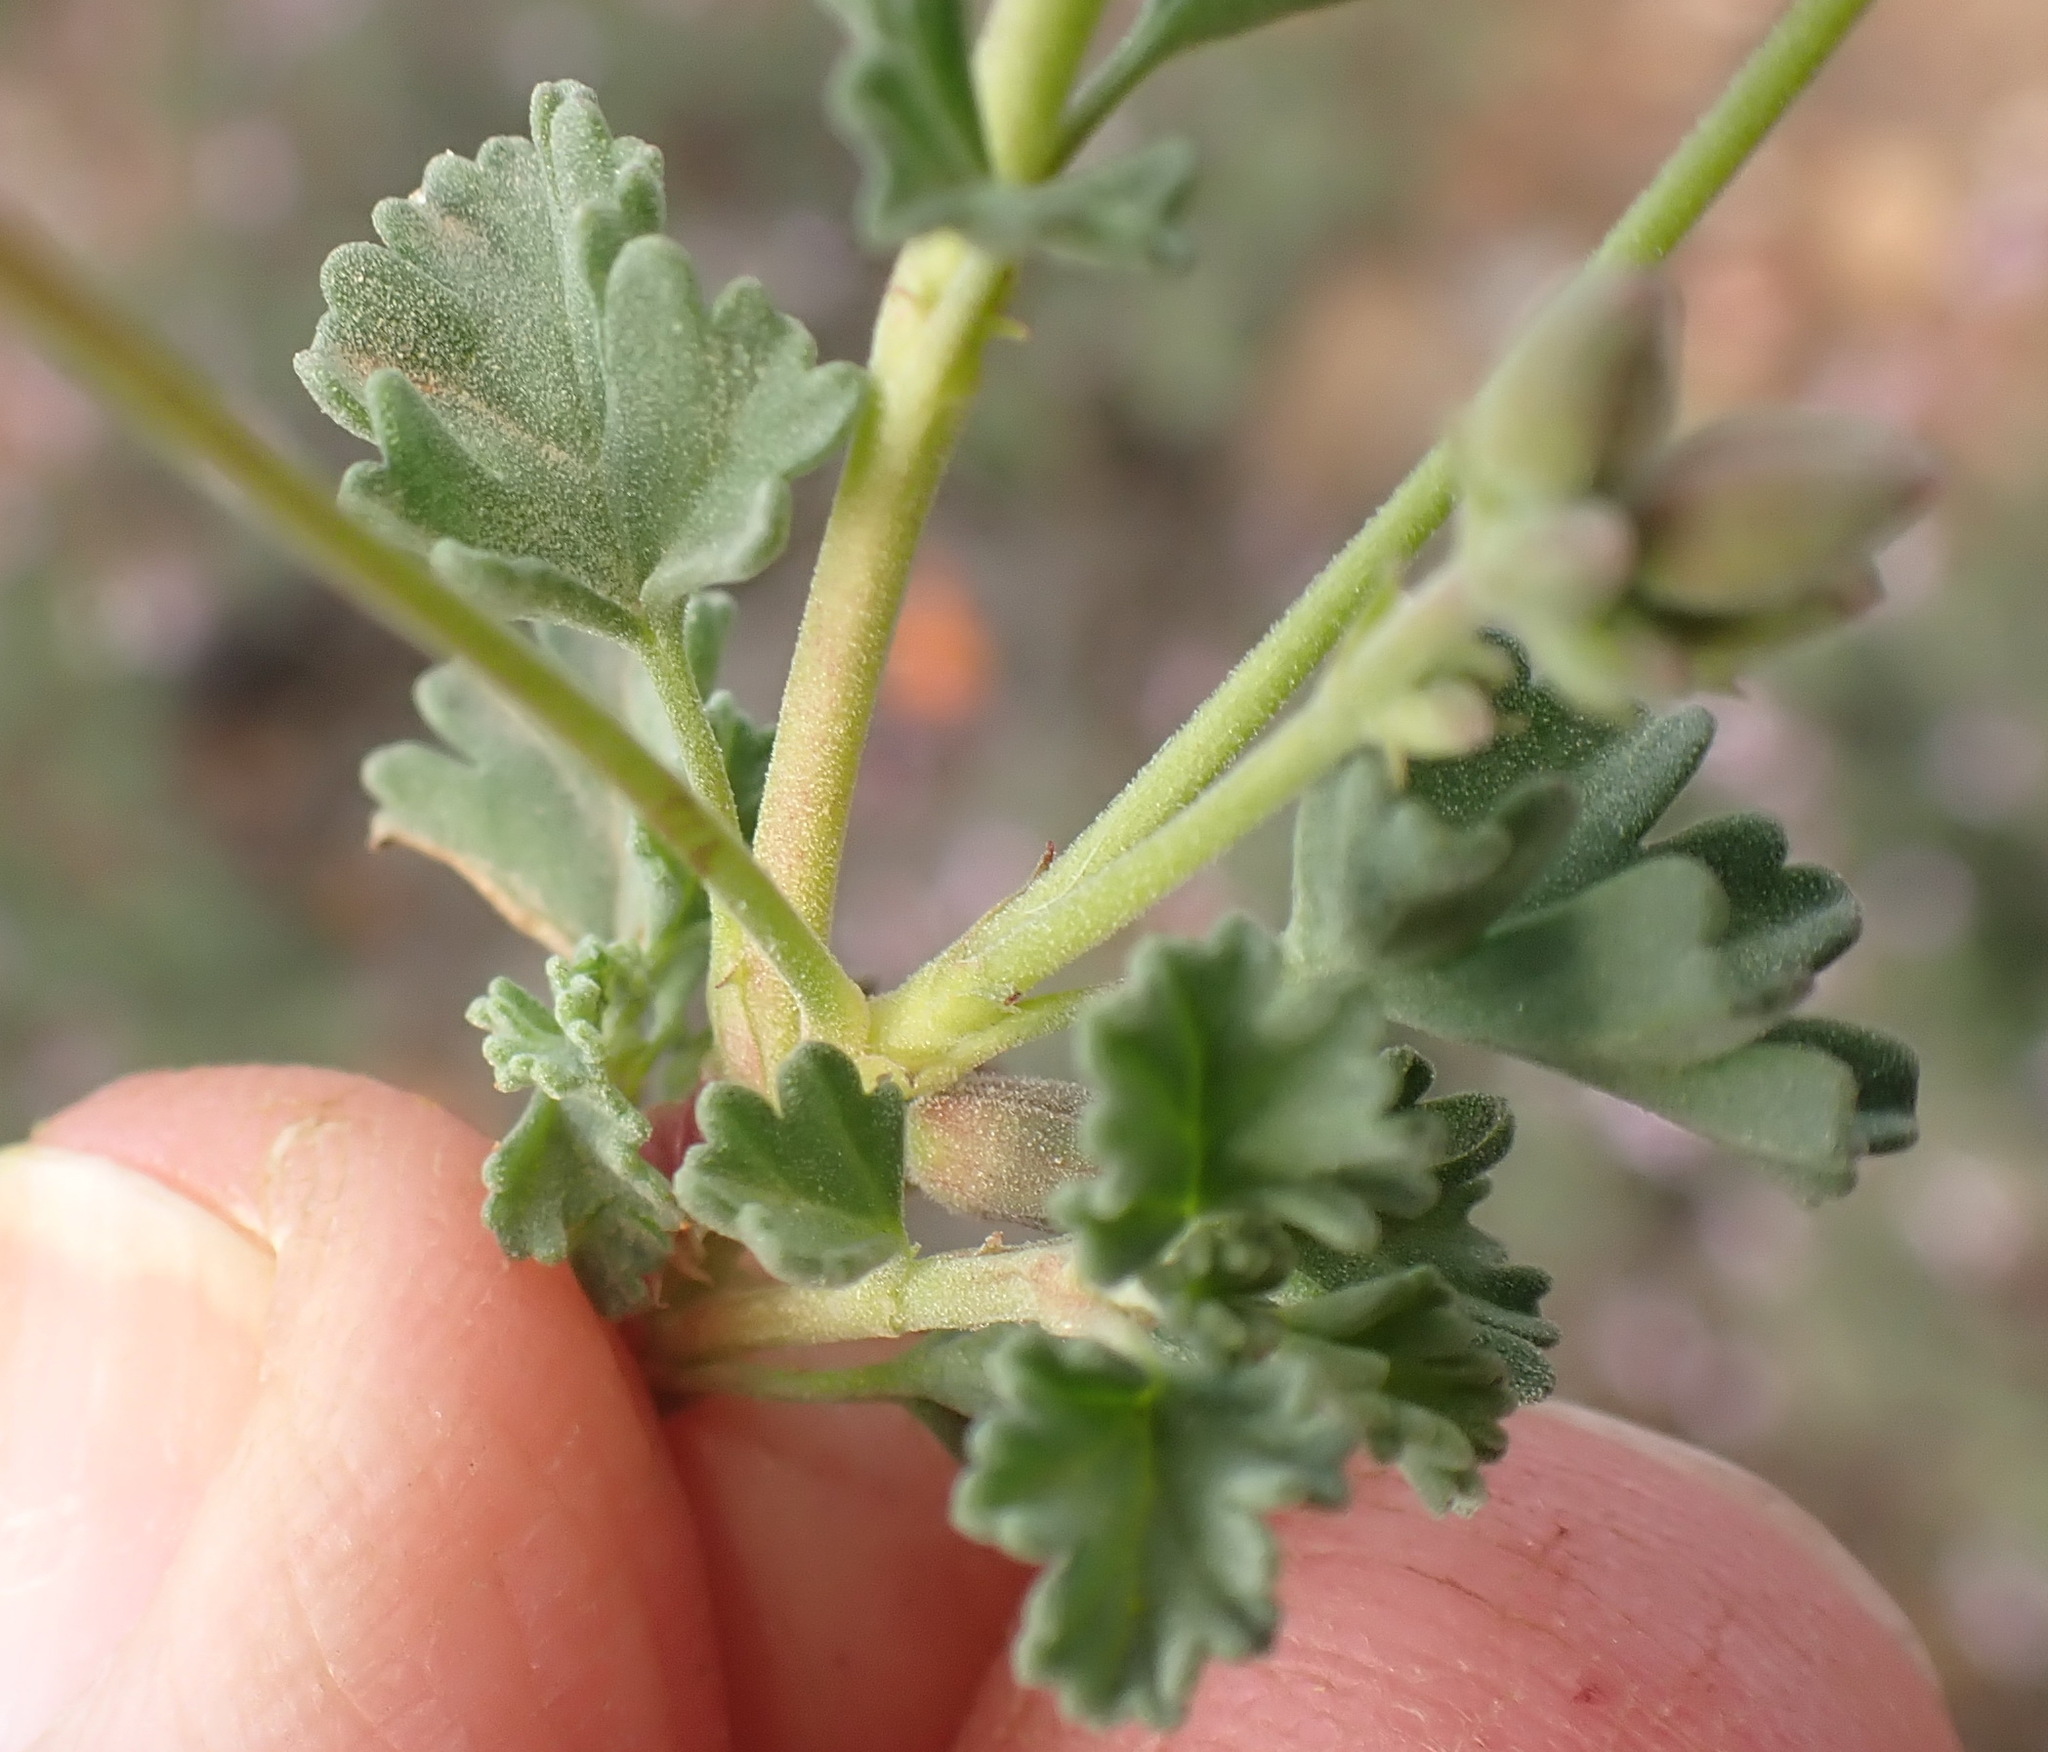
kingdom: Plantae
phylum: Tracheophyta
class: Magnoliopsida
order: Geraniales
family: Geraniaceae
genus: Pelargonium
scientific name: Pelargonium exstipulatum
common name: Soft-leaf trifid pelargonium
